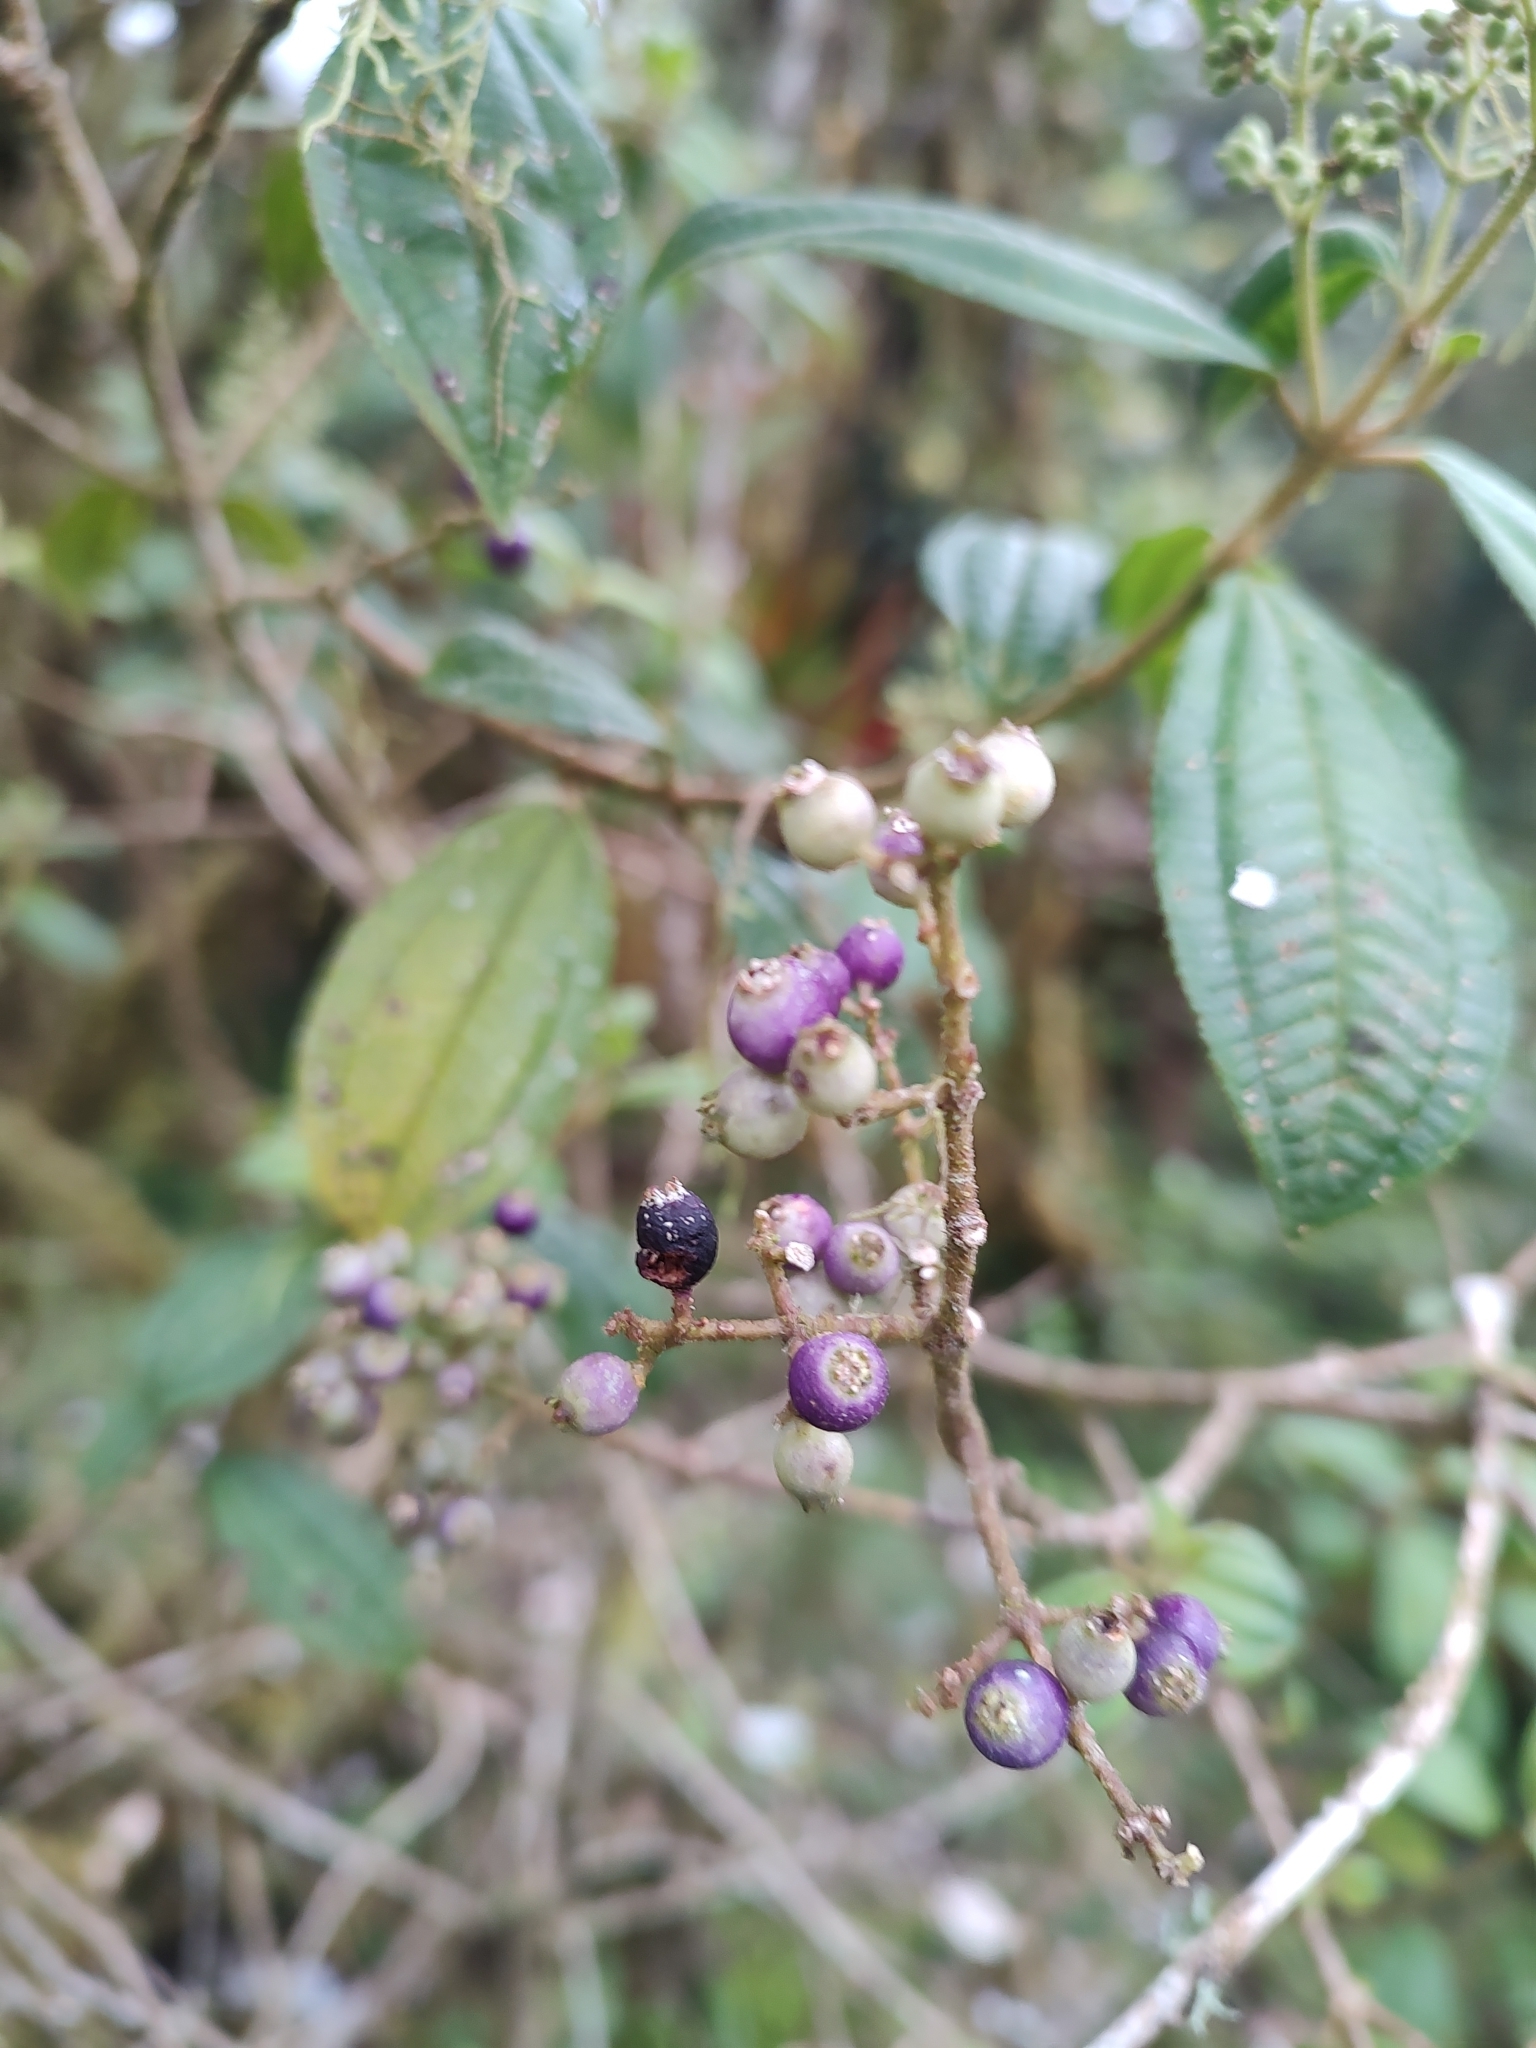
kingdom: Plantae
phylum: Tracheophyta
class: Magnoliopsida
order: Myrtales
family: Melastomataceae
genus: Miconia
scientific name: Miconia cataractae
